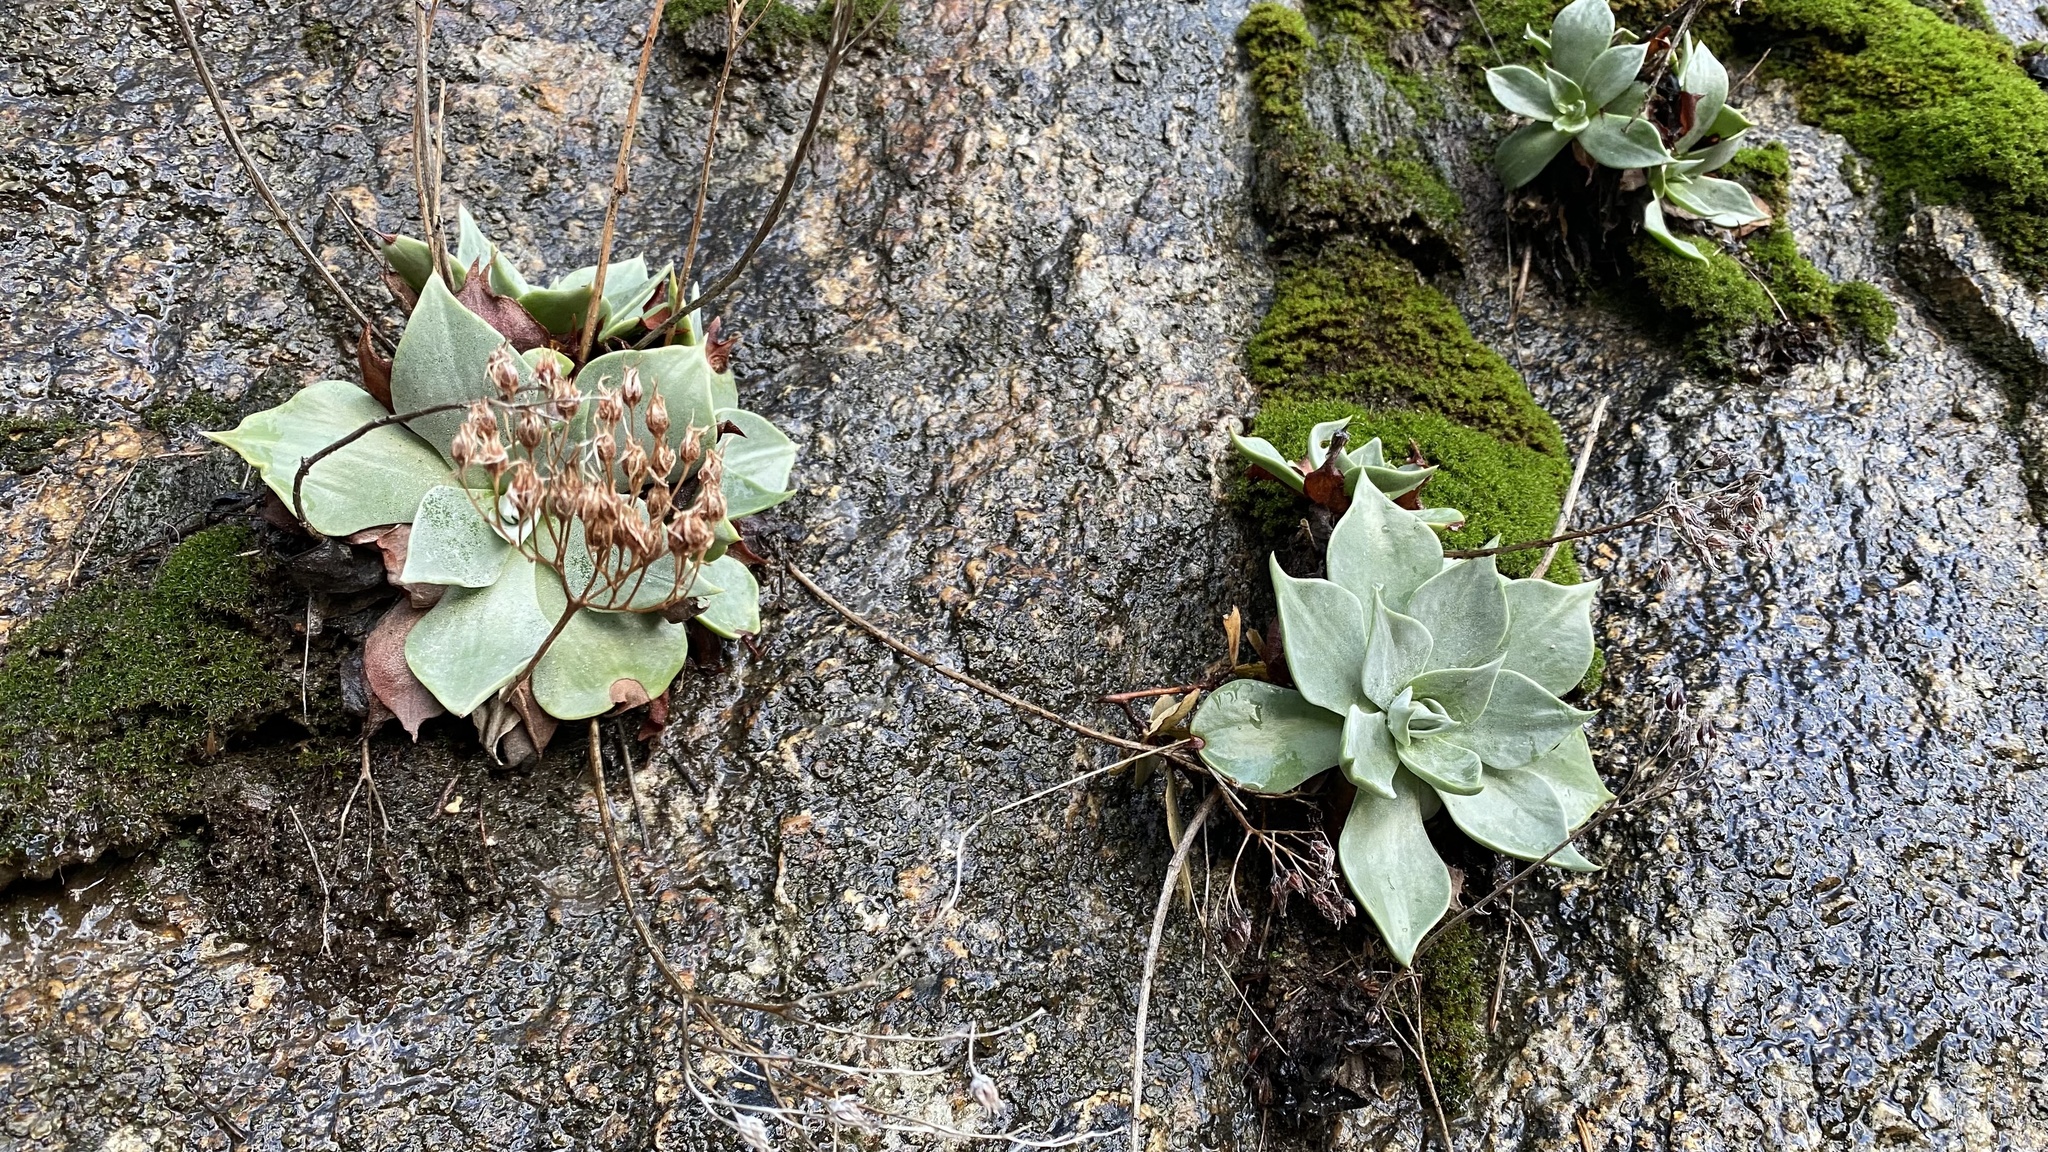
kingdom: Plantae
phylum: Tracheophyta
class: Magnoliopsida
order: Saxifragales
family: Crassulaceae
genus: Dudleya
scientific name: Dudleya cymosa
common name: Canyon dudleya
